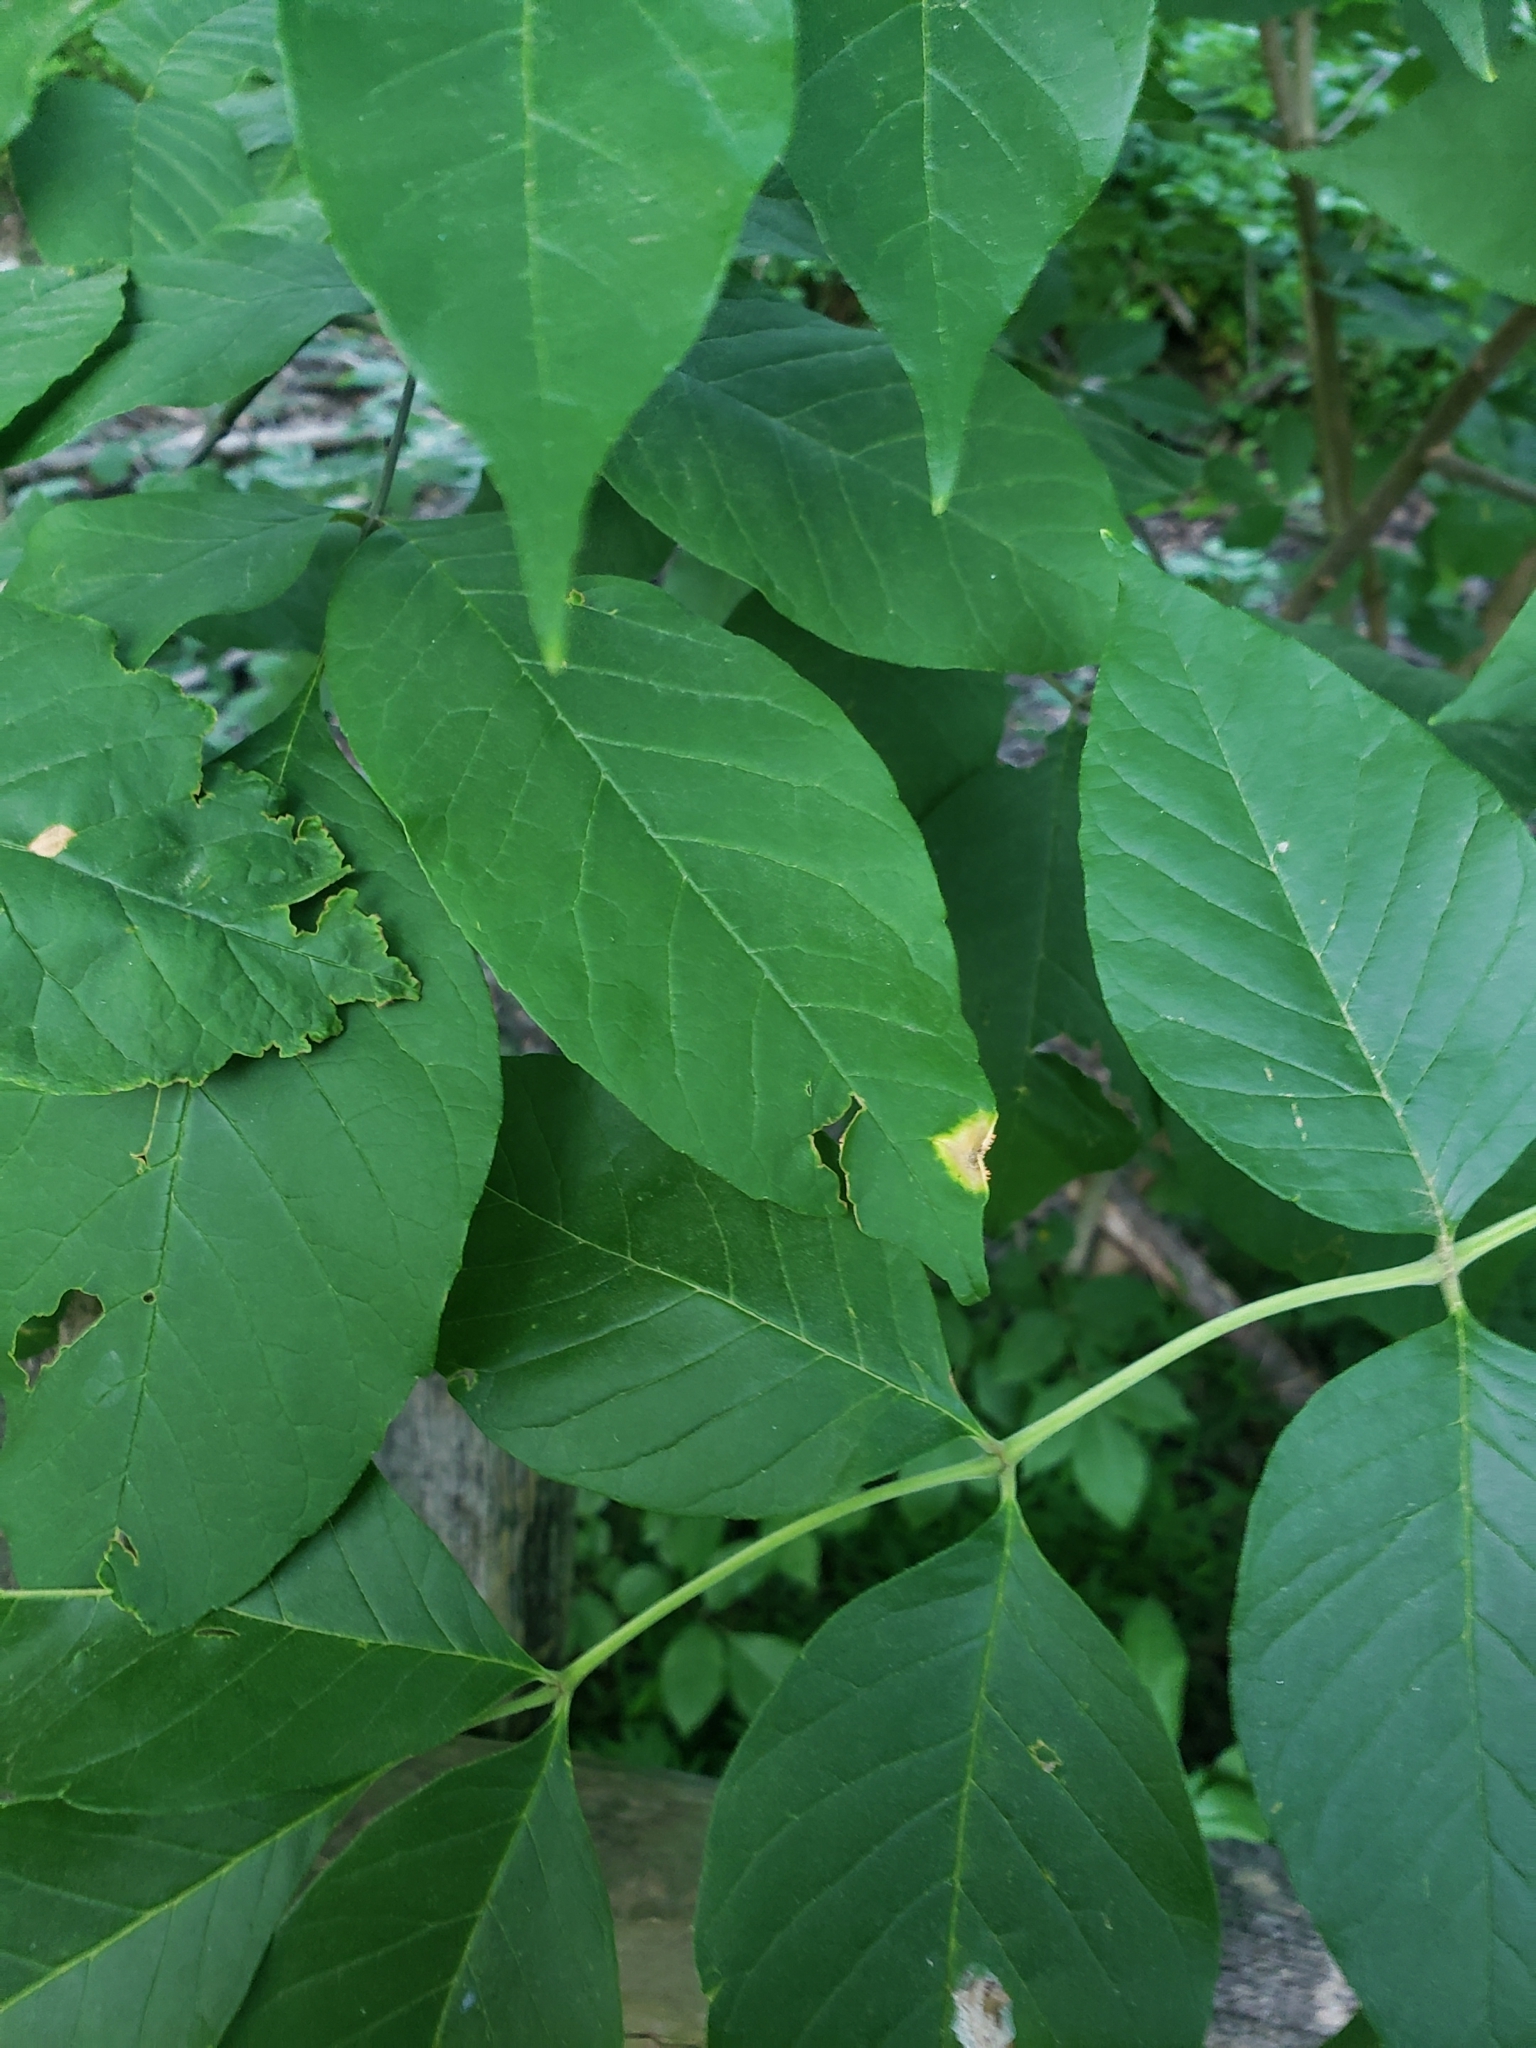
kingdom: Fungi
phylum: Basidiomycota
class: Pucciniomycetes
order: Pucciniales
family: Pucciniaceae
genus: Puccinia
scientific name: Puccinia sparganioidis
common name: Ash rust
